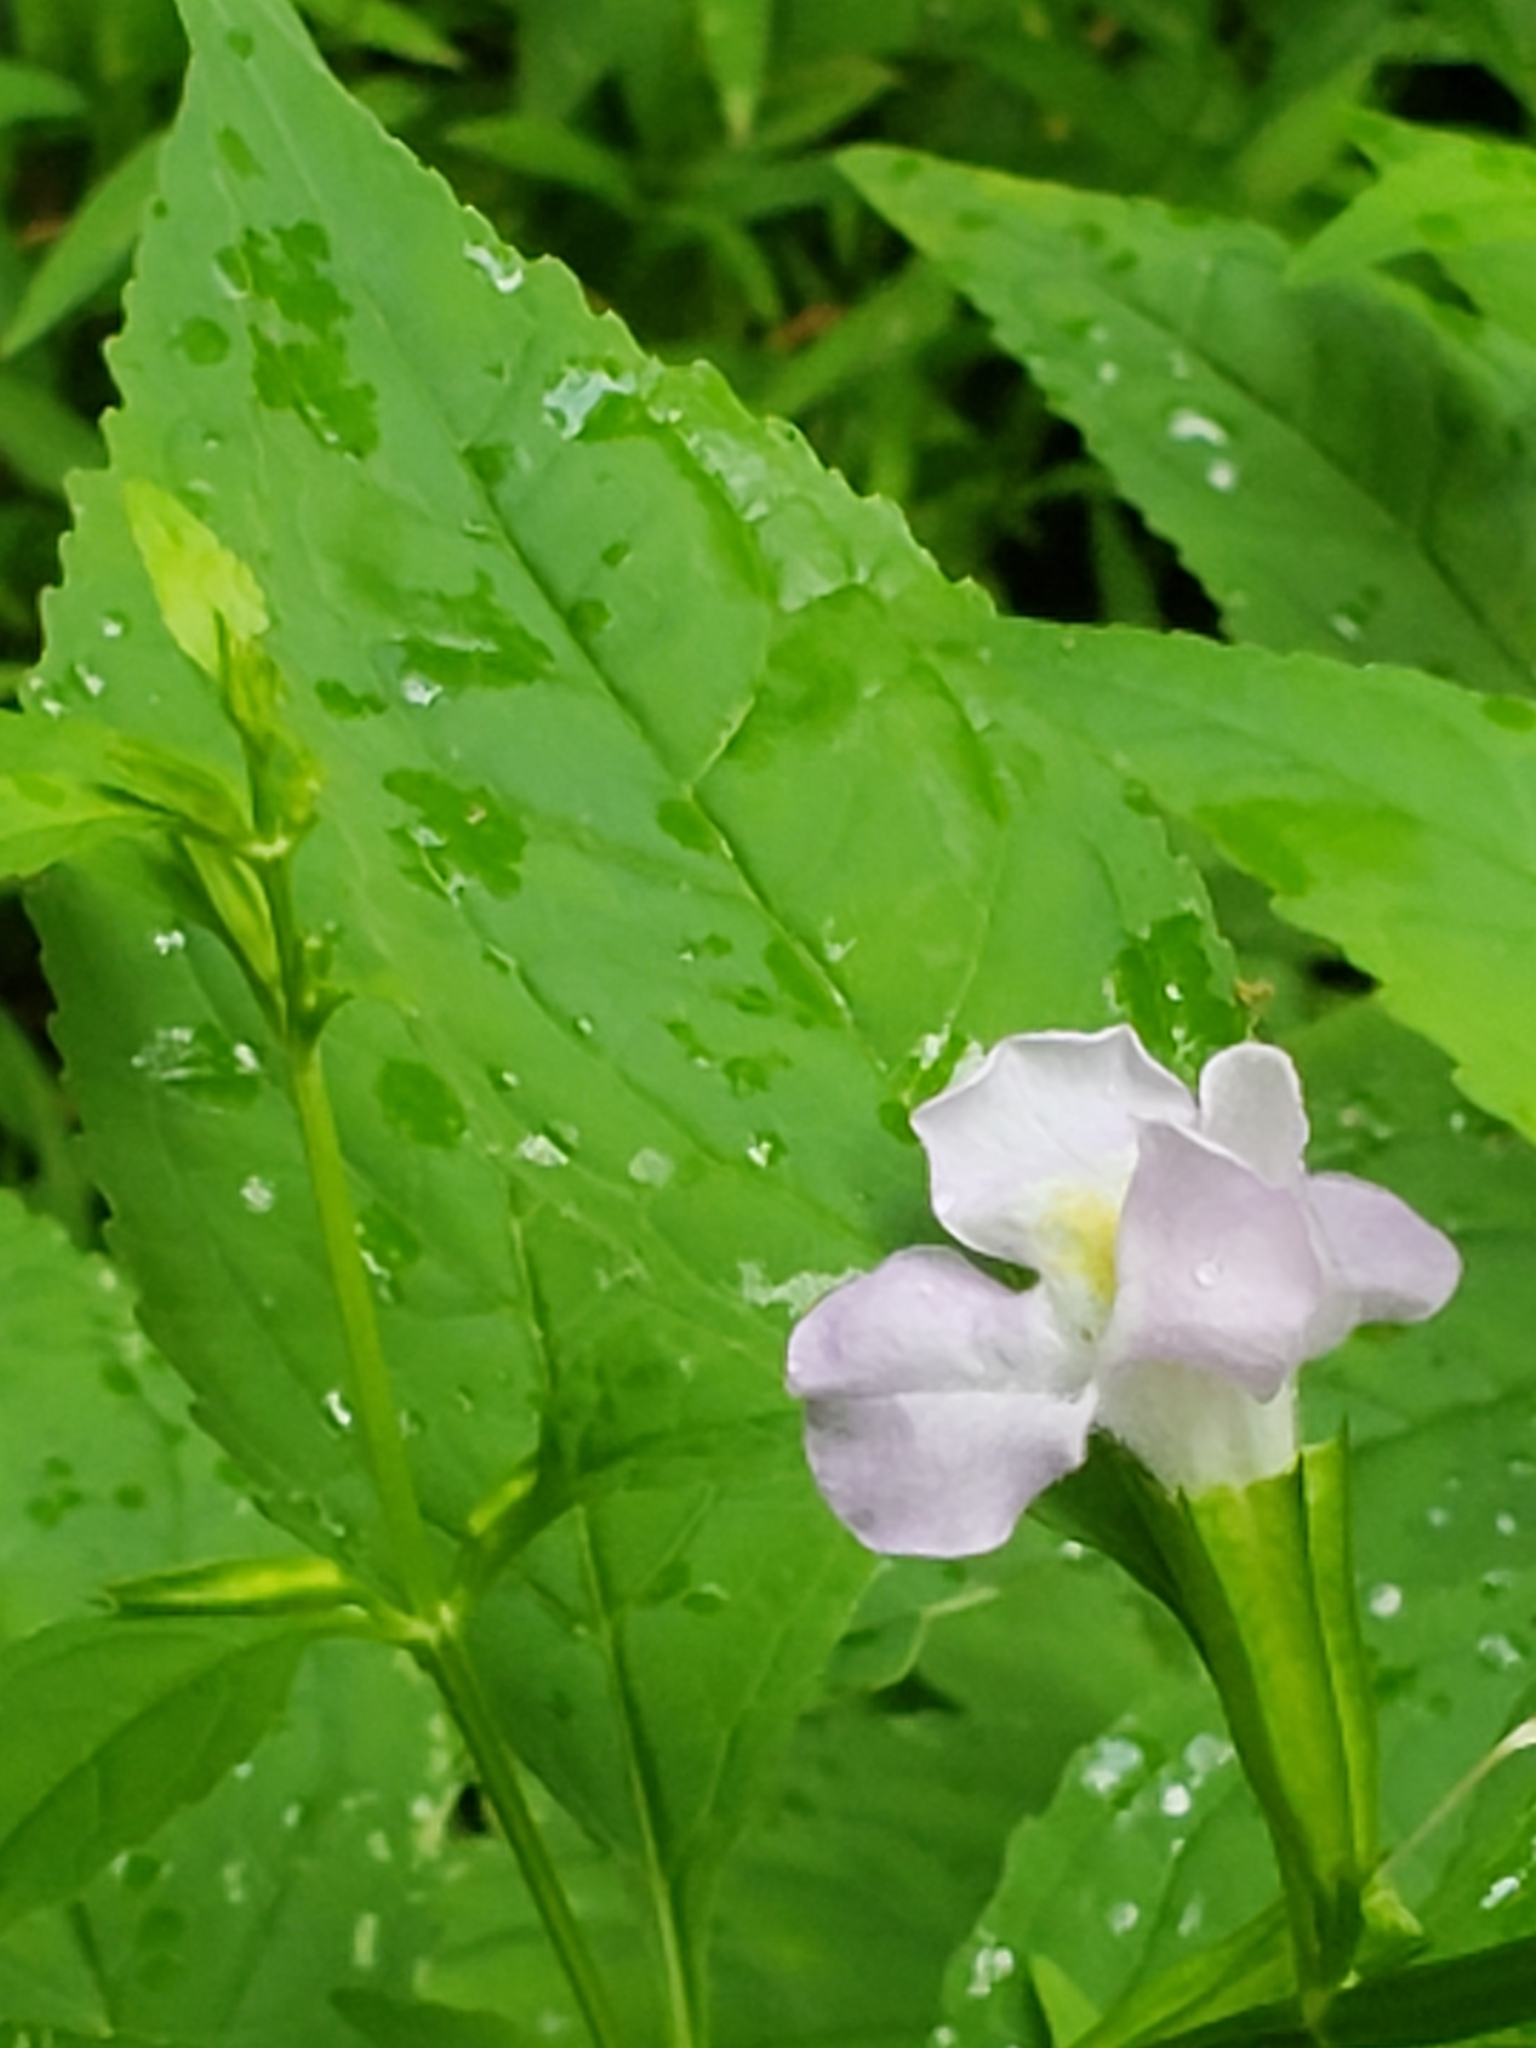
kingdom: Plantae
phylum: Tracheophyta
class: Magnoliopsida
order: Lamiales
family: Phrymaceae
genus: Mimulus
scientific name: Mimulus alatus
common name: Sharp-wing monkey-flower
